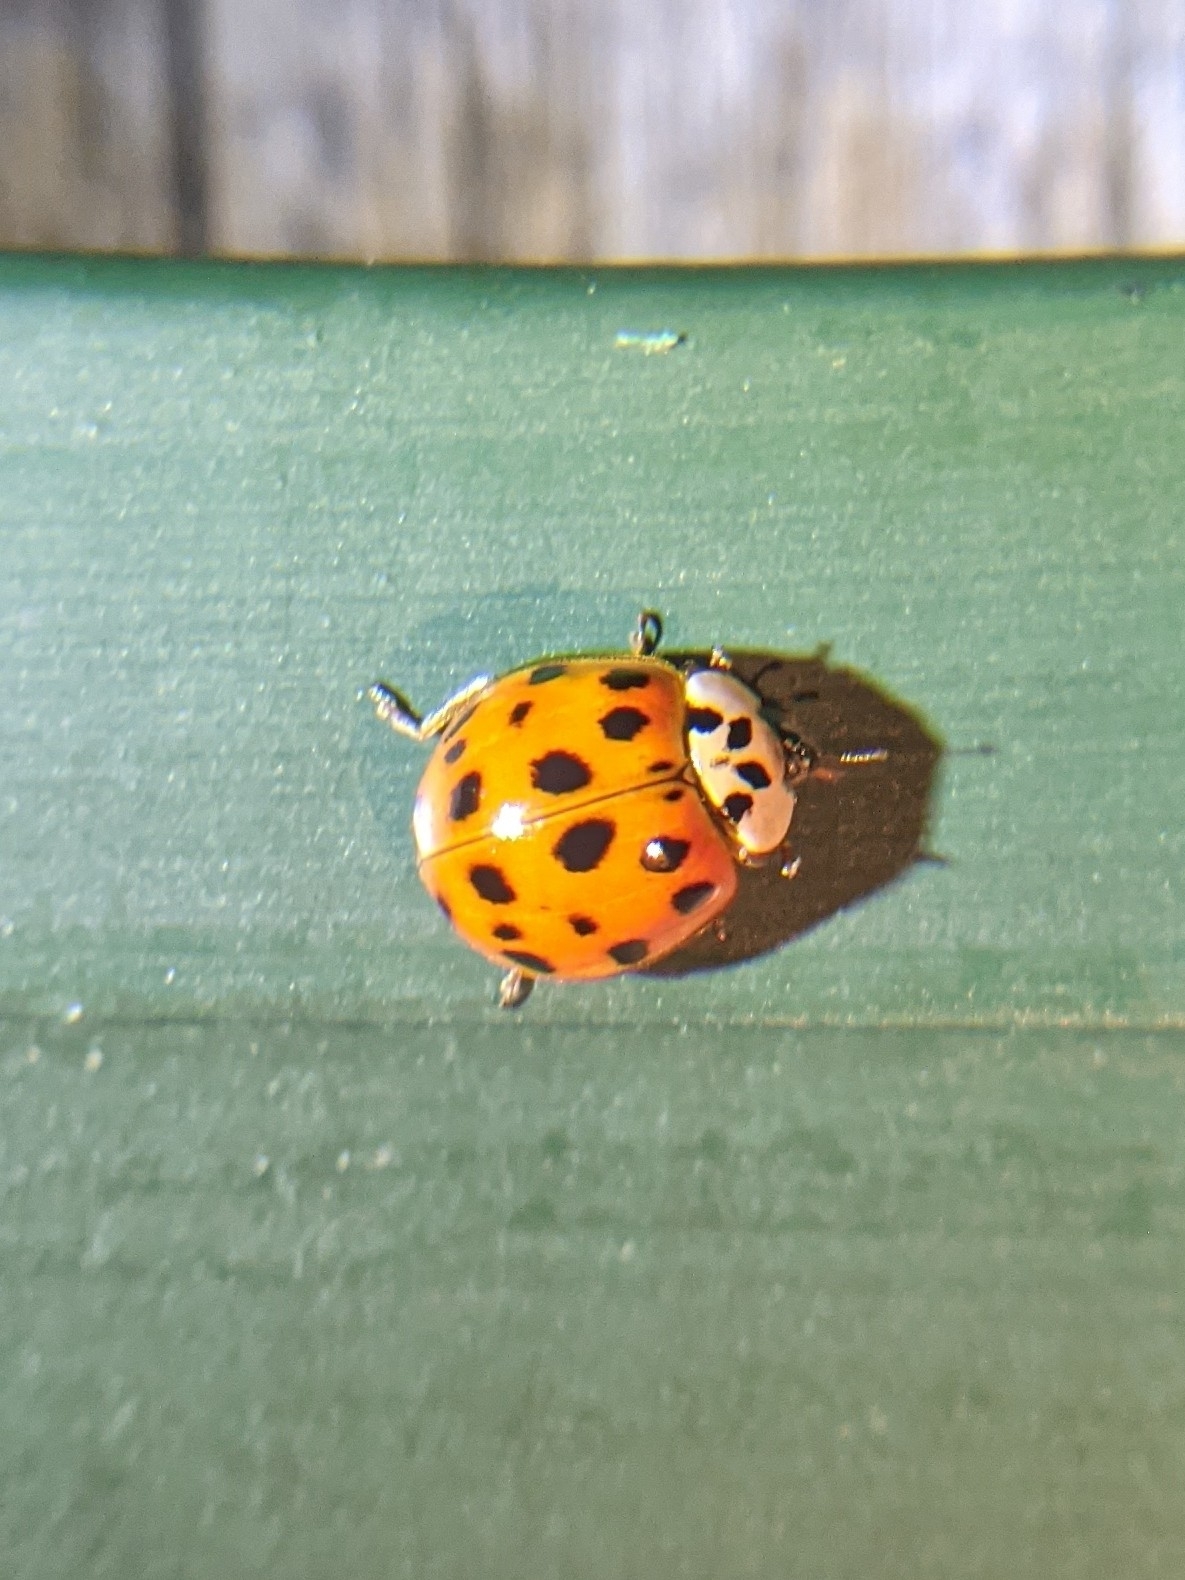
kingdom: Animalia
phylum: Arthropoda
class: Insecta
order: Coleoptera
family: Coccinellidae
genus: Harmonia
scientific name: Harmonia axyridis
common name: Harlequin ladybird
